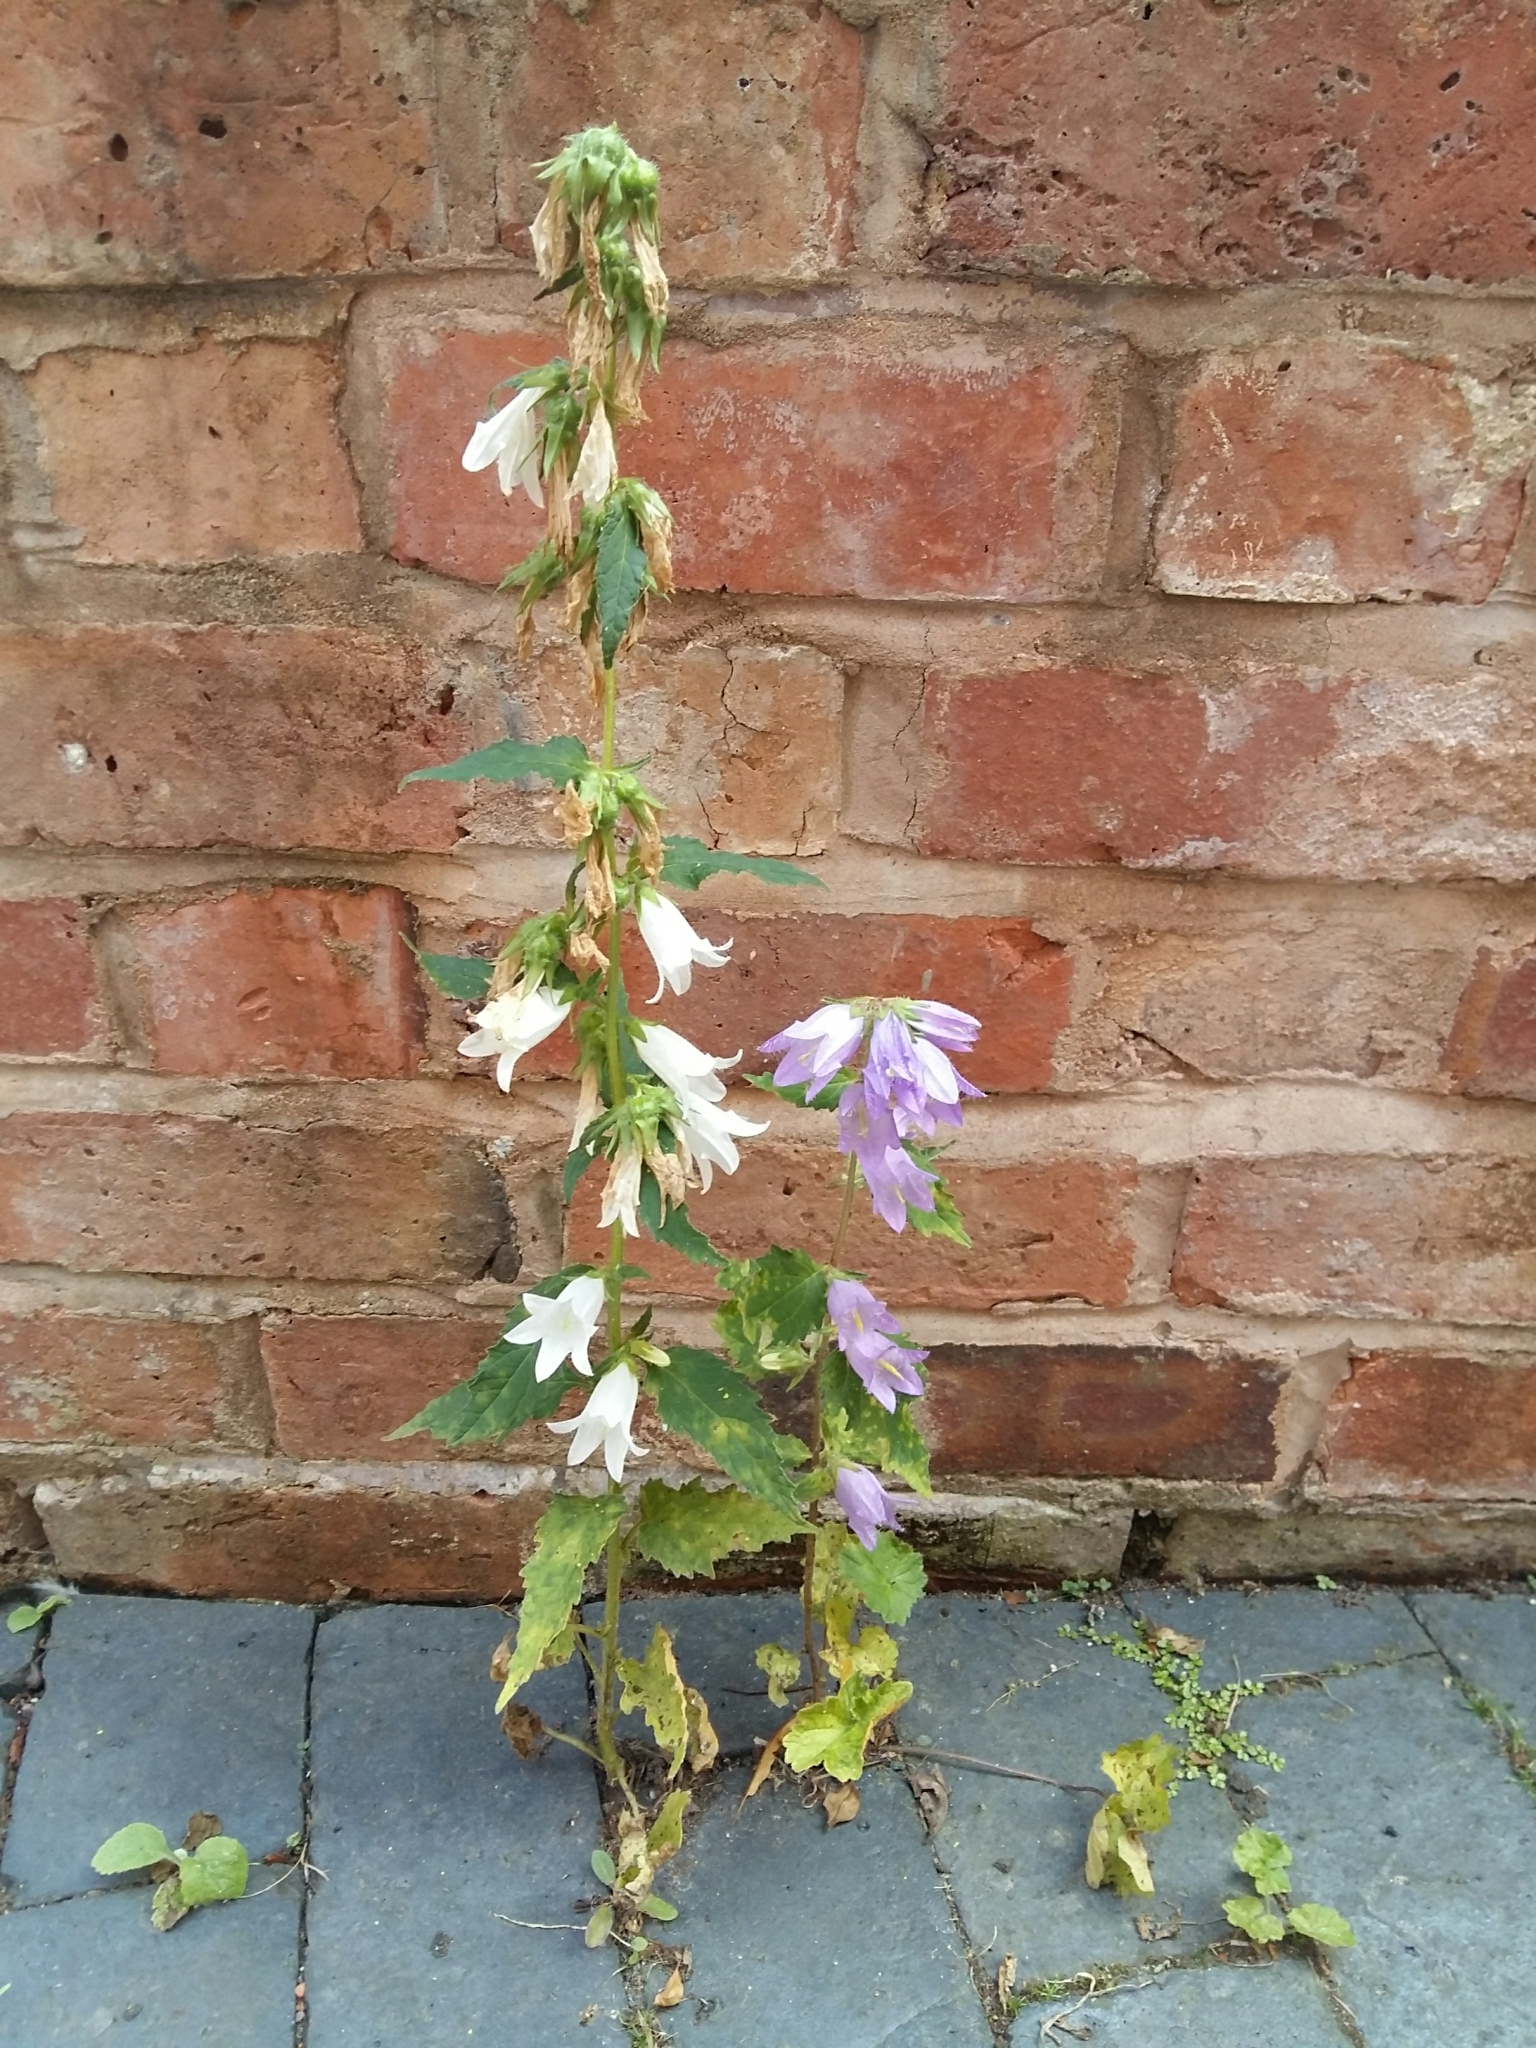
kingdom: Plantae
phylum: Tracheophyta
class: Magnoliopsida
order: Asterales
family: Campanulaceae
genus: Campanula
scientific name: Campanula trachelium
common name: Nettle-leaved bellflower
